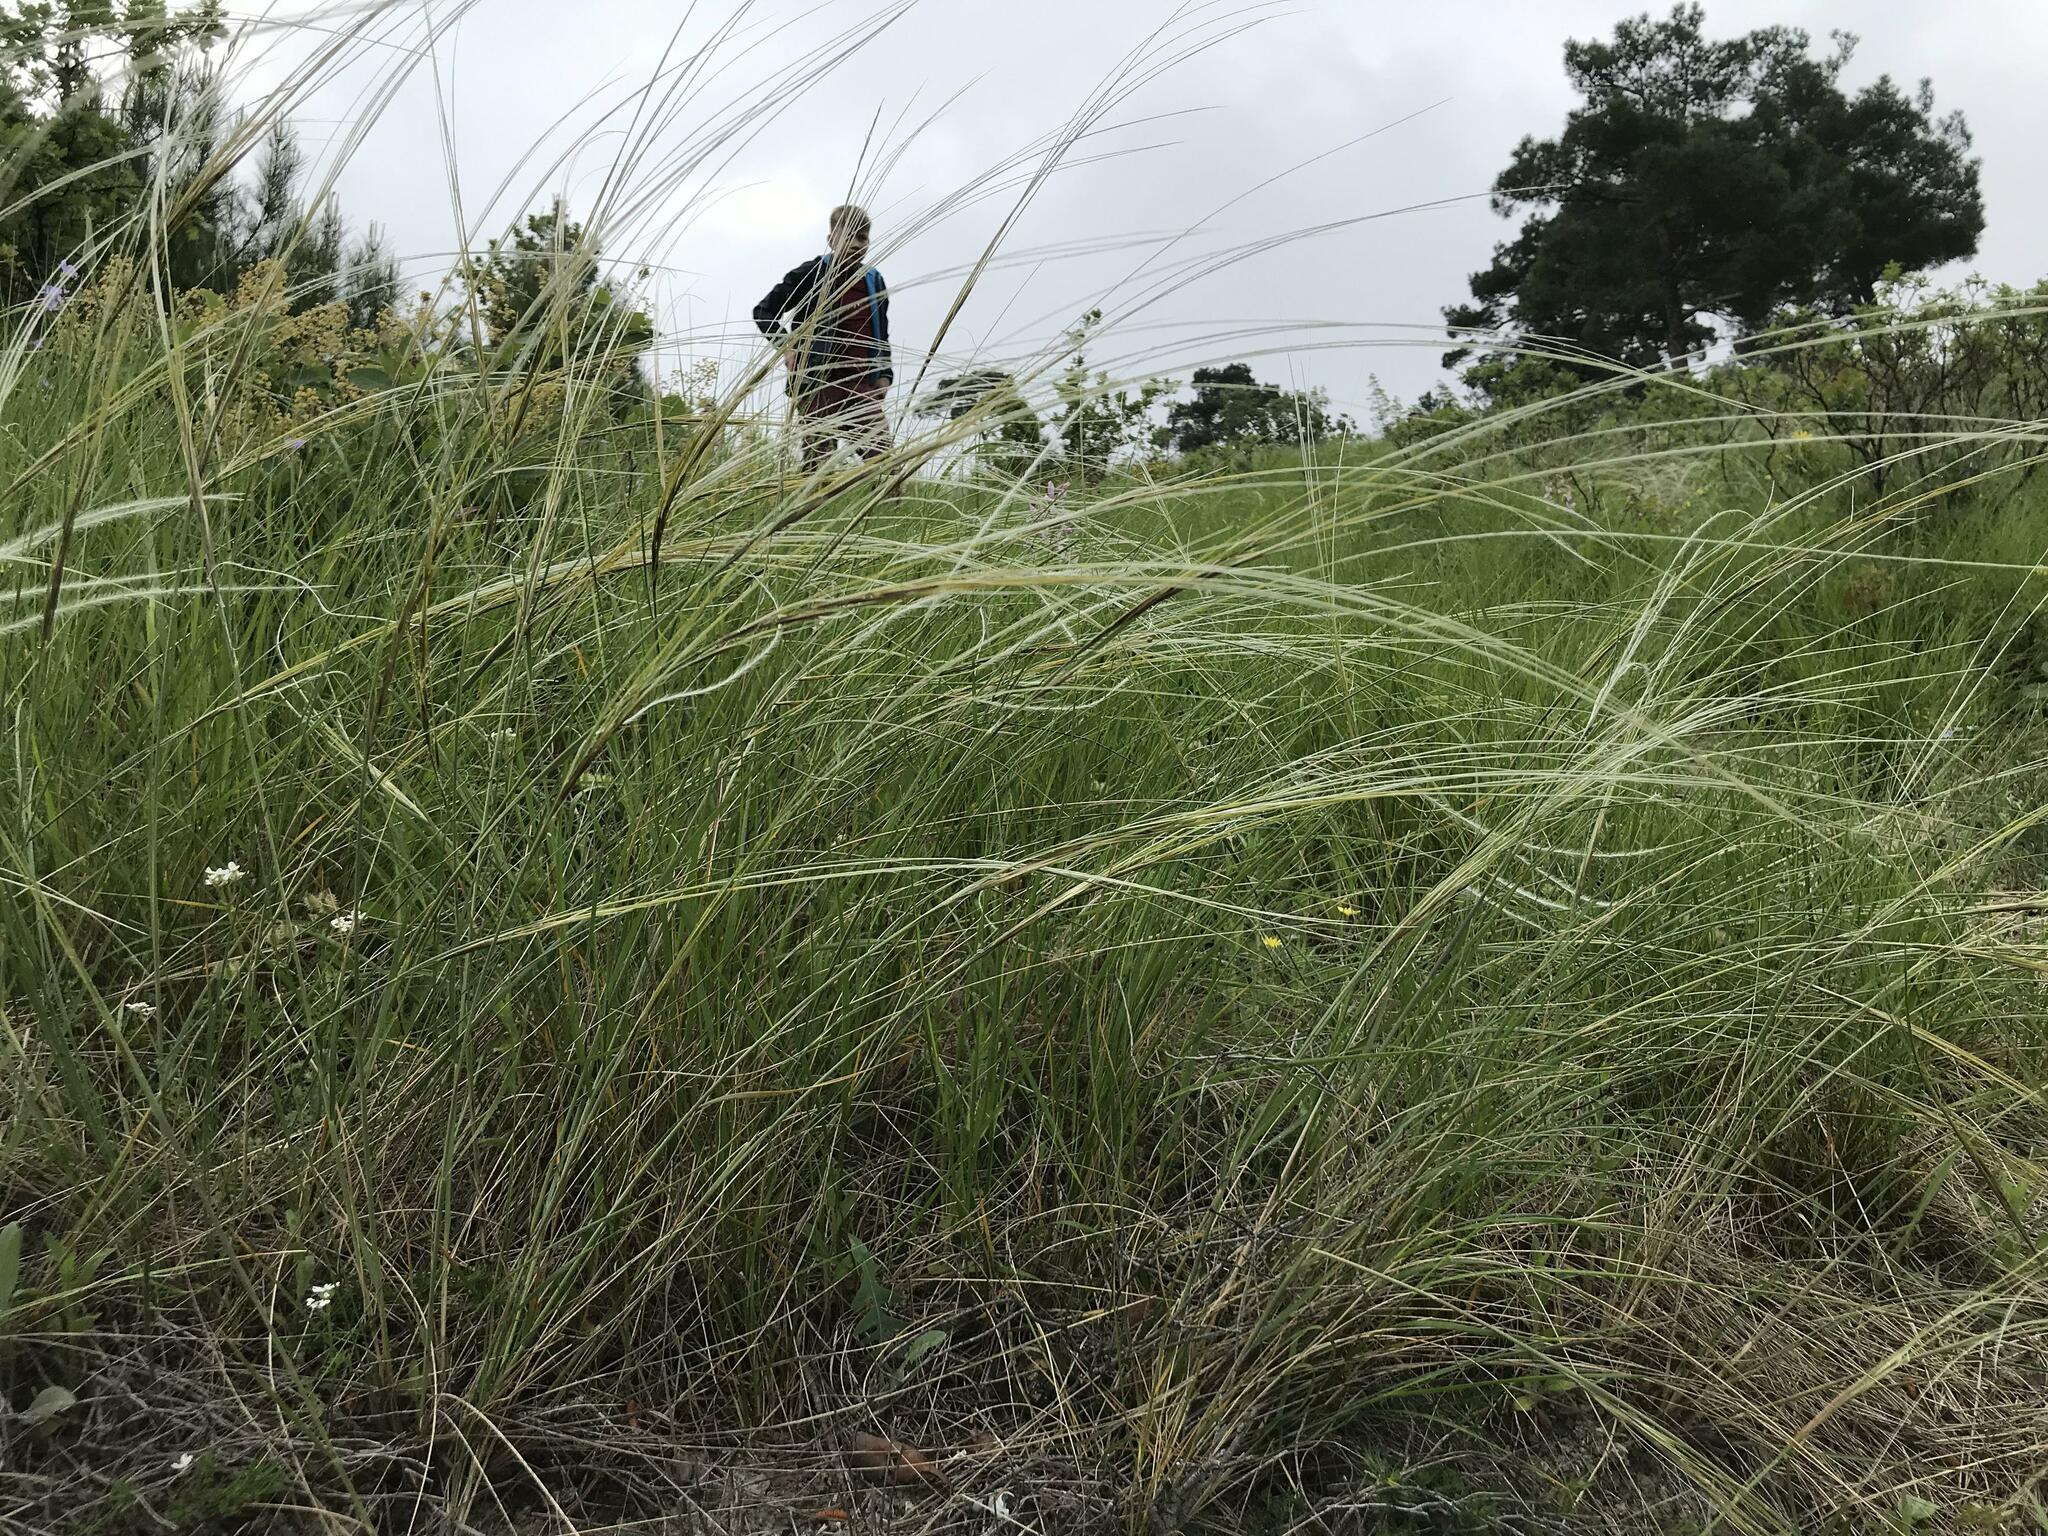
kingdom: Plantae
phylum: Tracheophyta
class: Liliopsida
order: Poales
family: Poaceae
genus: Stipa
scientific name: Stipa
